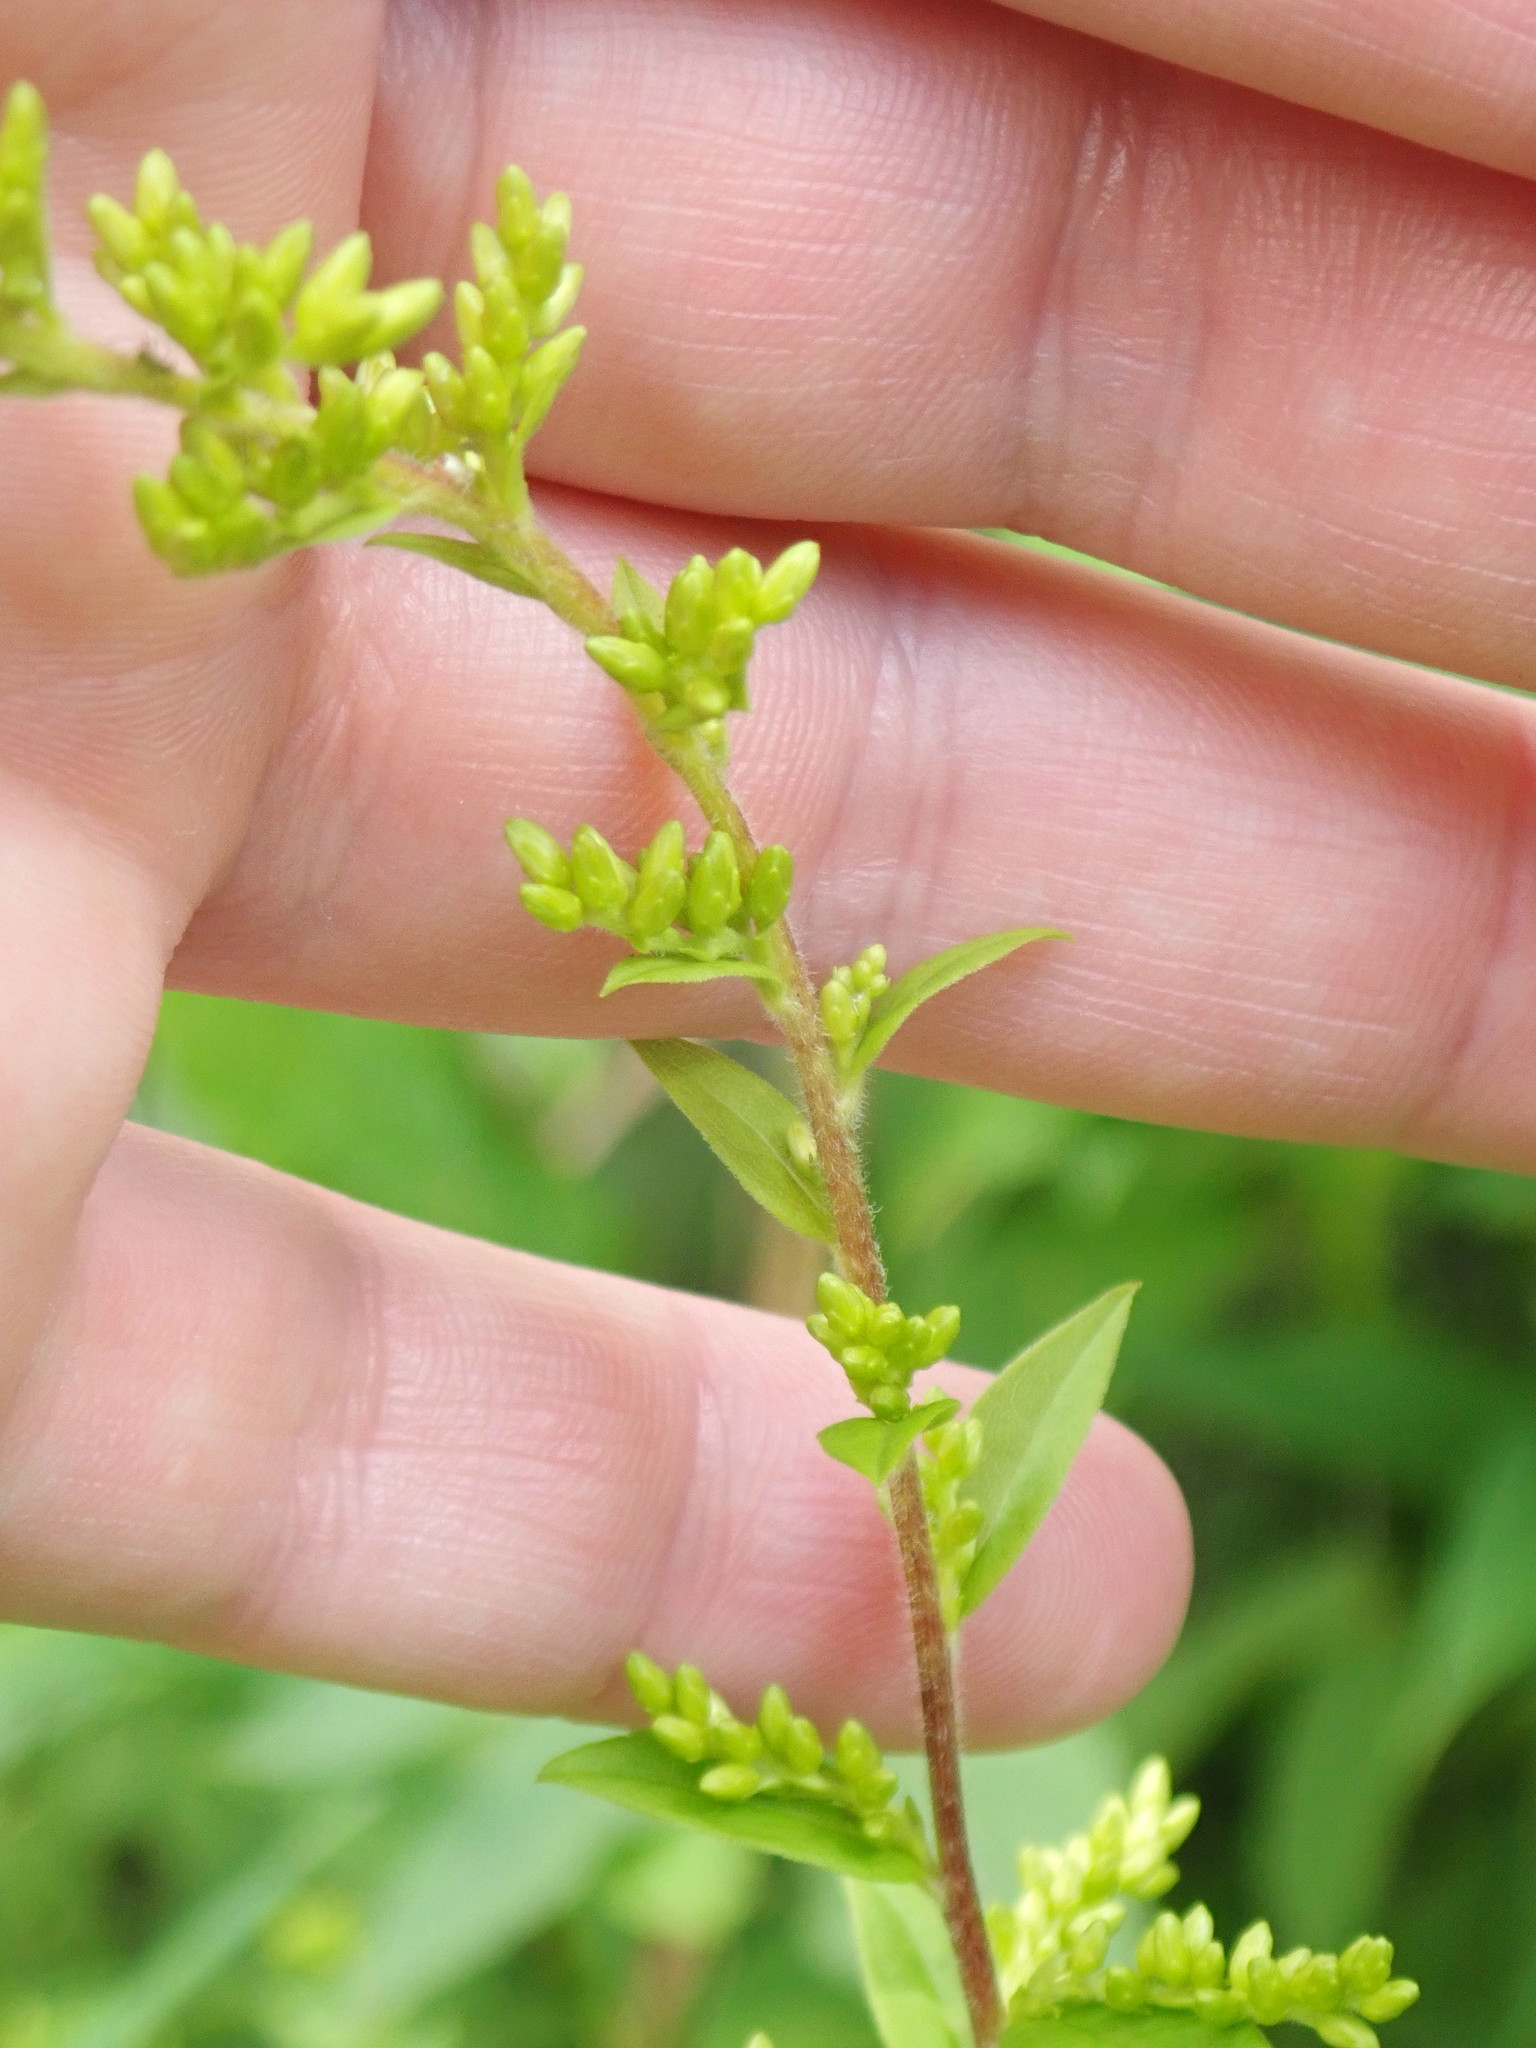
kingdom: Plantae
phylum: Tracheophyta
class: Magnoliopsida
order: Asterales
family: Asteraceae
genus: Solidago
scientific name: Solidago nemoralis
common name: Grey goldenrod
